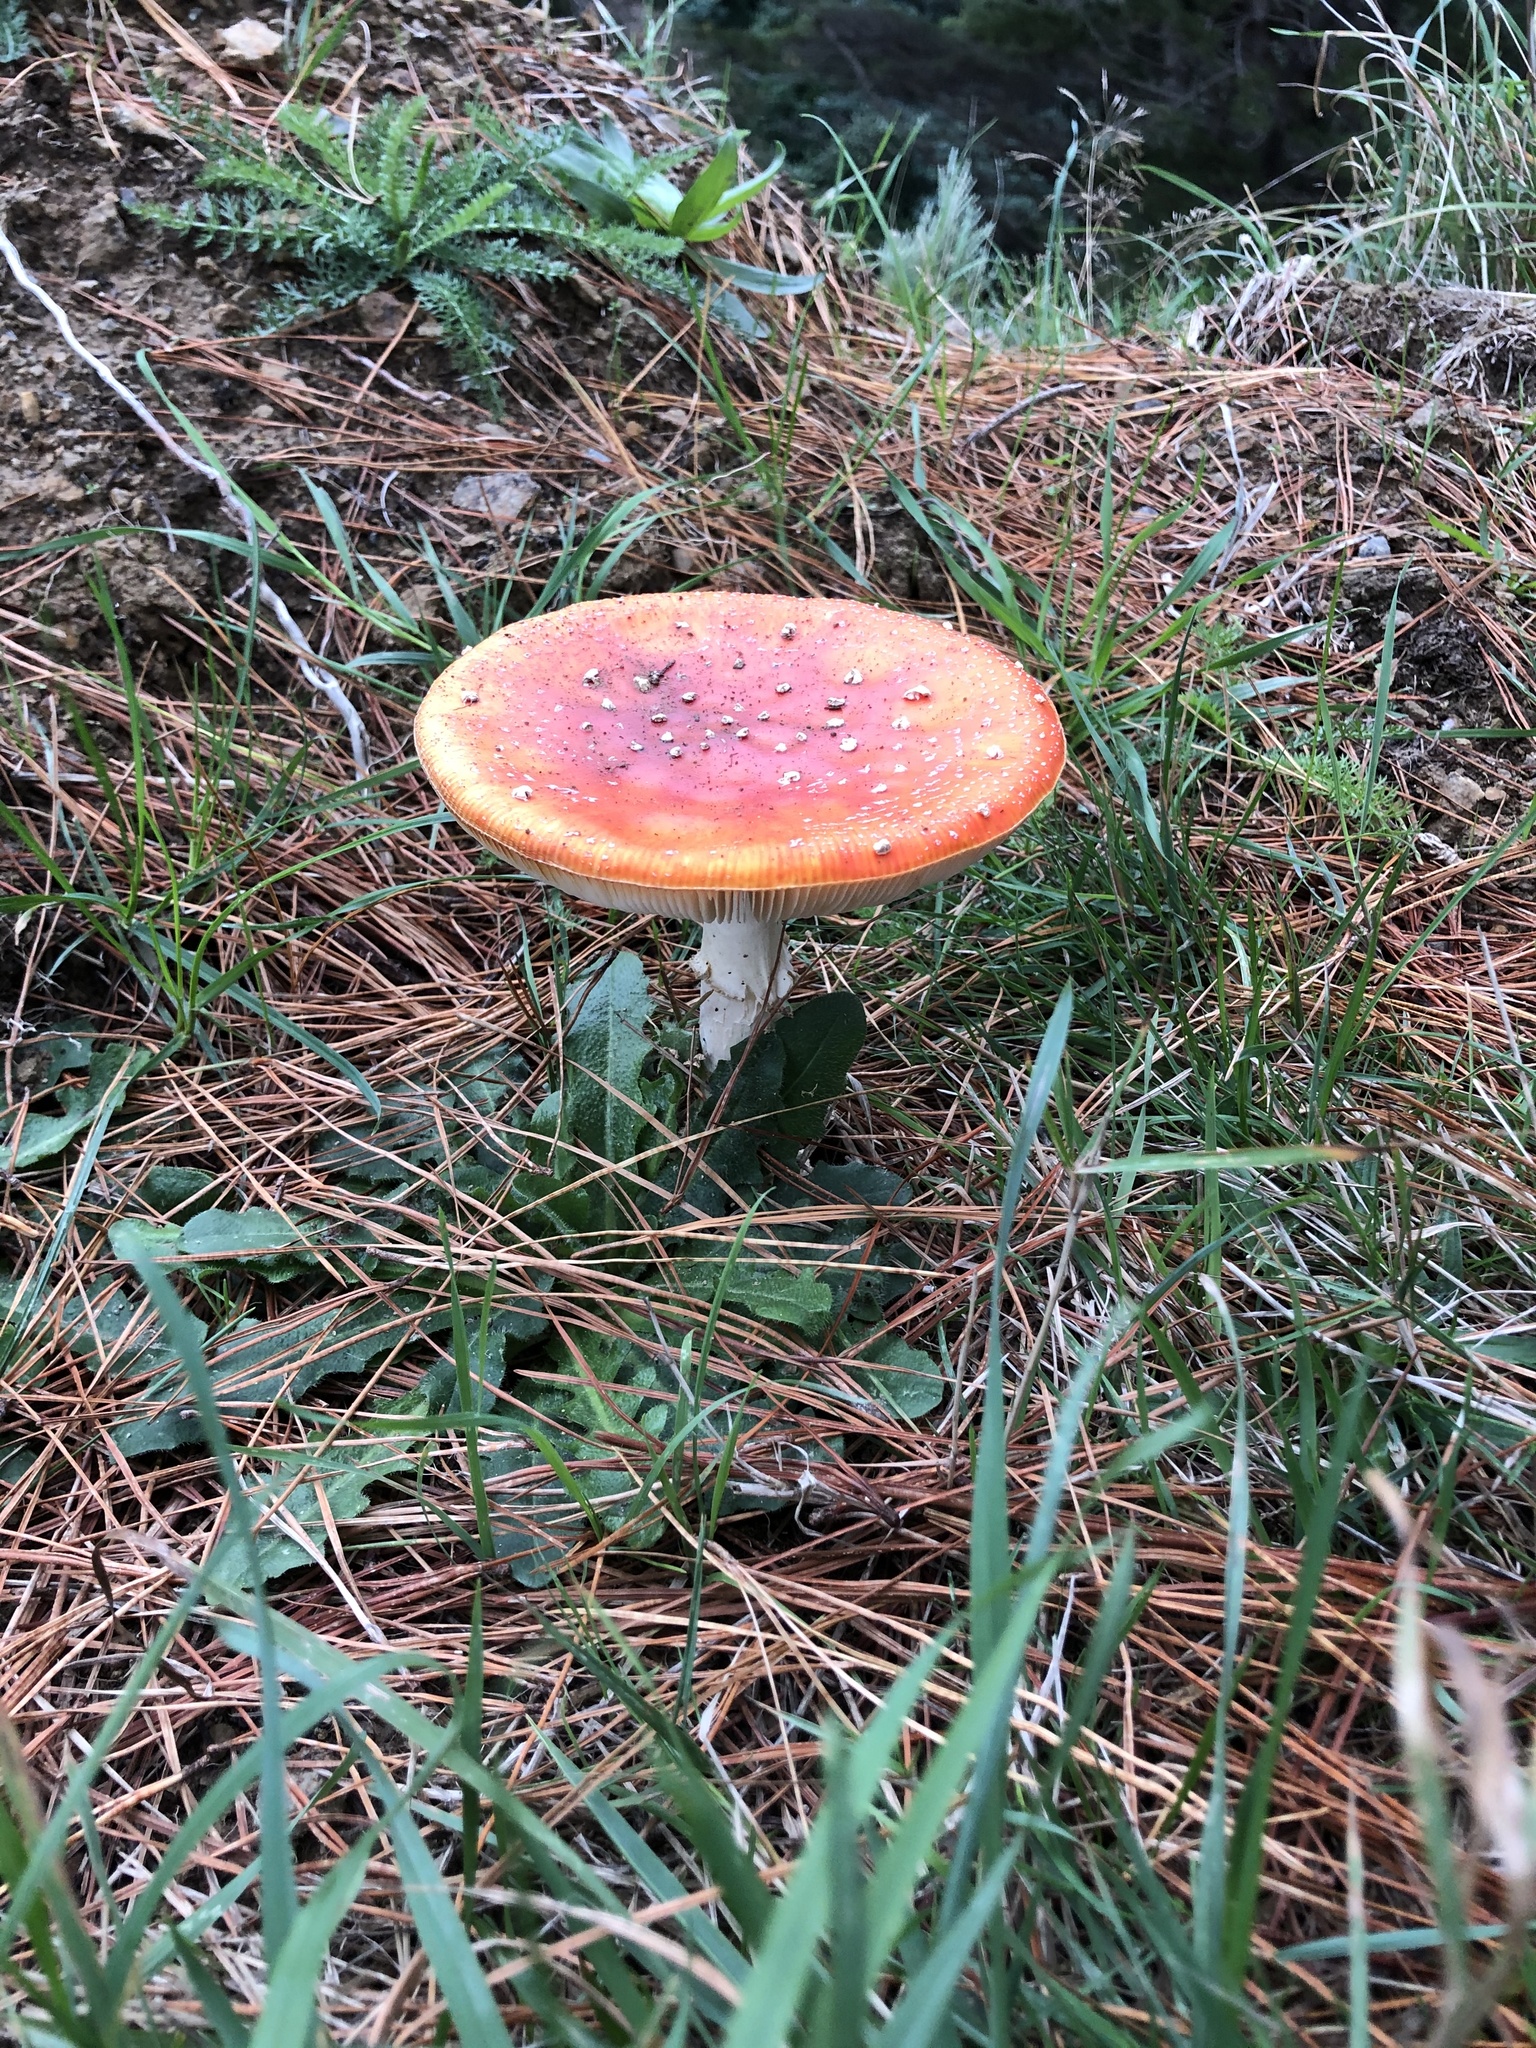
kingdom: Fungi
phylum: Basidiomycota
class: Agaricomycetes
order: Agaricales
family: Amanitaceae
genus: Amanita
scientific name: Amanita muscaria
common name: Fly agaric
